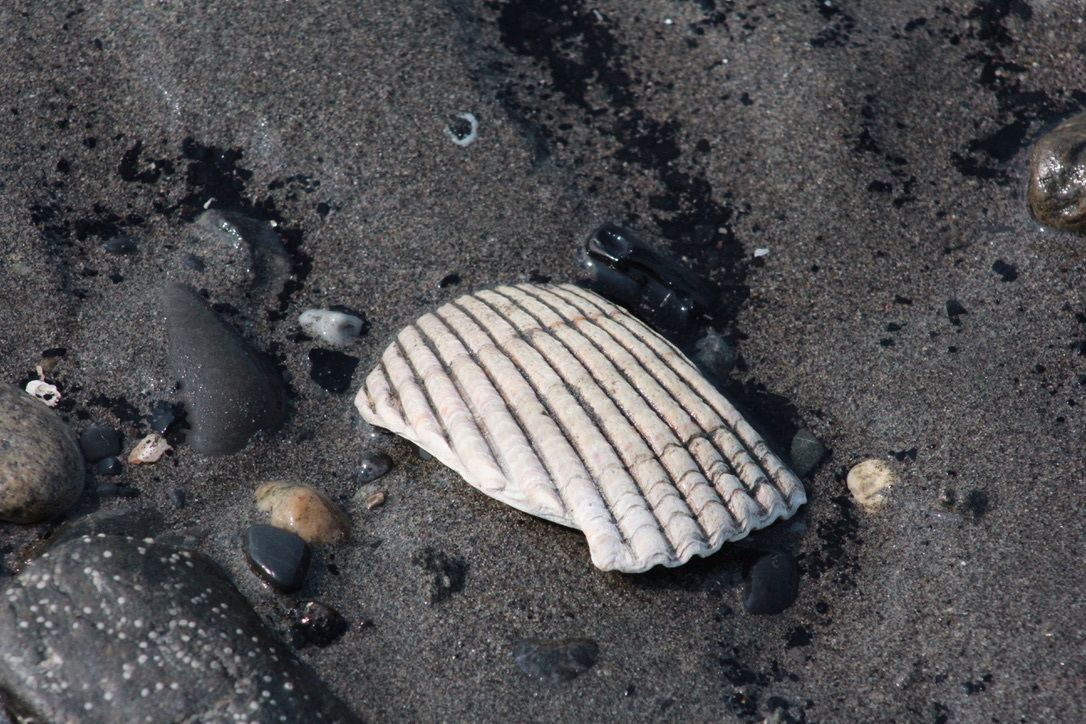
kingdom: Animalia
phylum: Mollusca
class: Bivalvia
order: Cardiida
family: Cardiidae
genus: Clinocardium
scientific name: Clinocardium nuttallii
